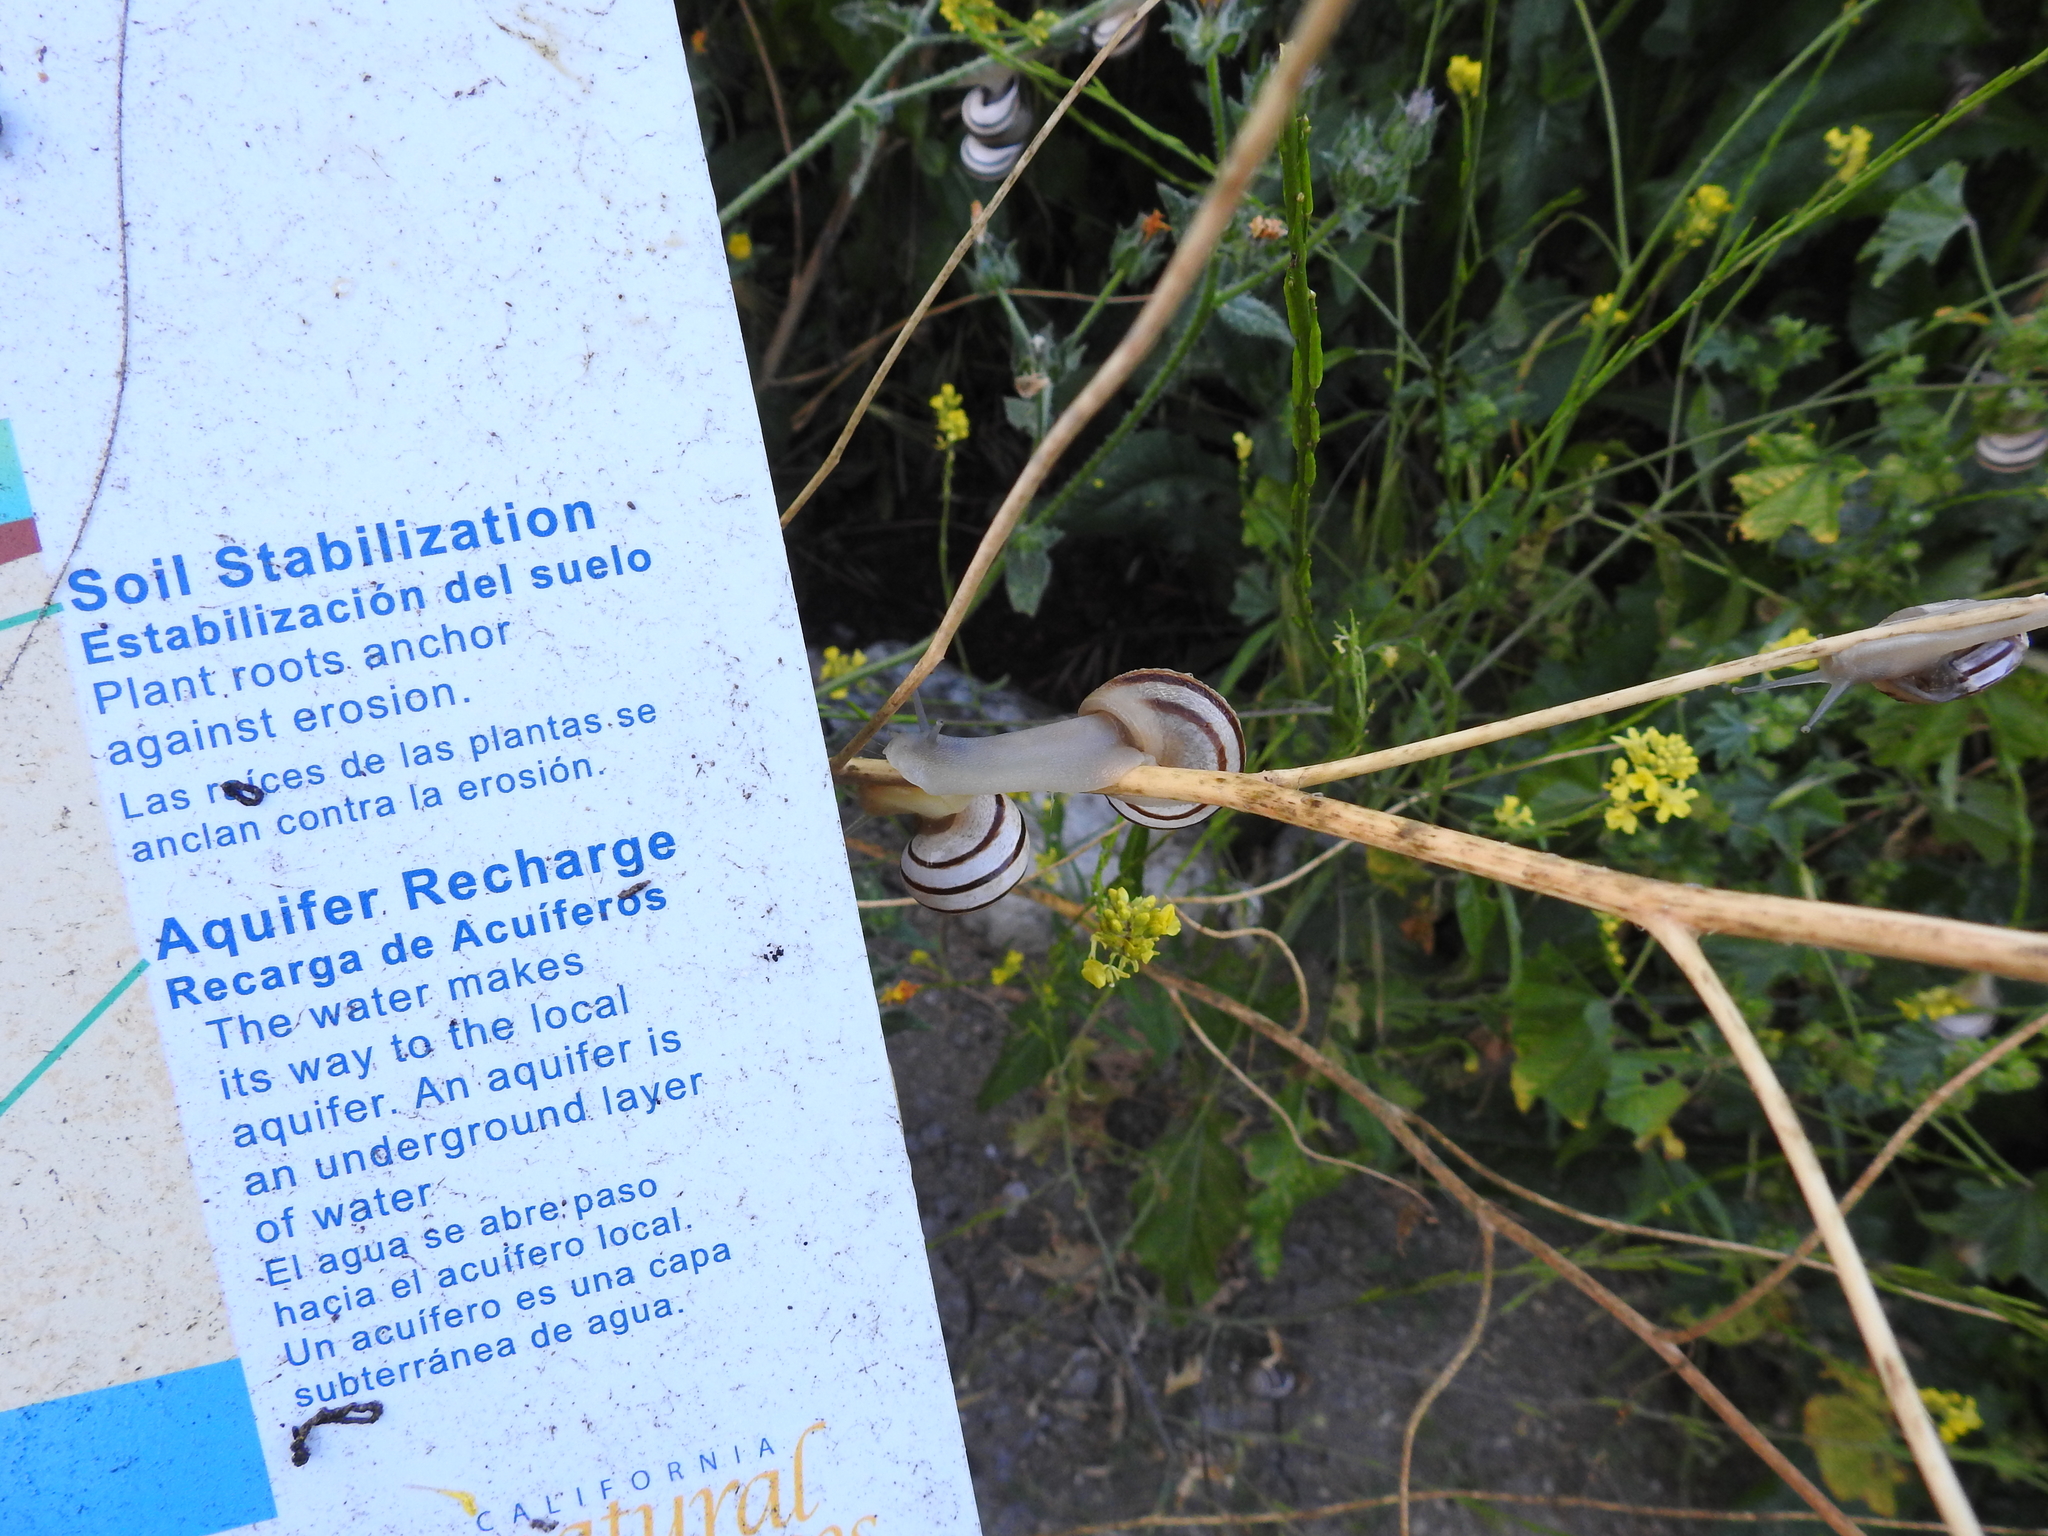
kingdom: Animalia
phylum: Mollusca
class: Gastropoda
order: Stylommatophora
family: Helicidae
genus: Otala
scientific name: Otala lactea
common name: Milk snail
